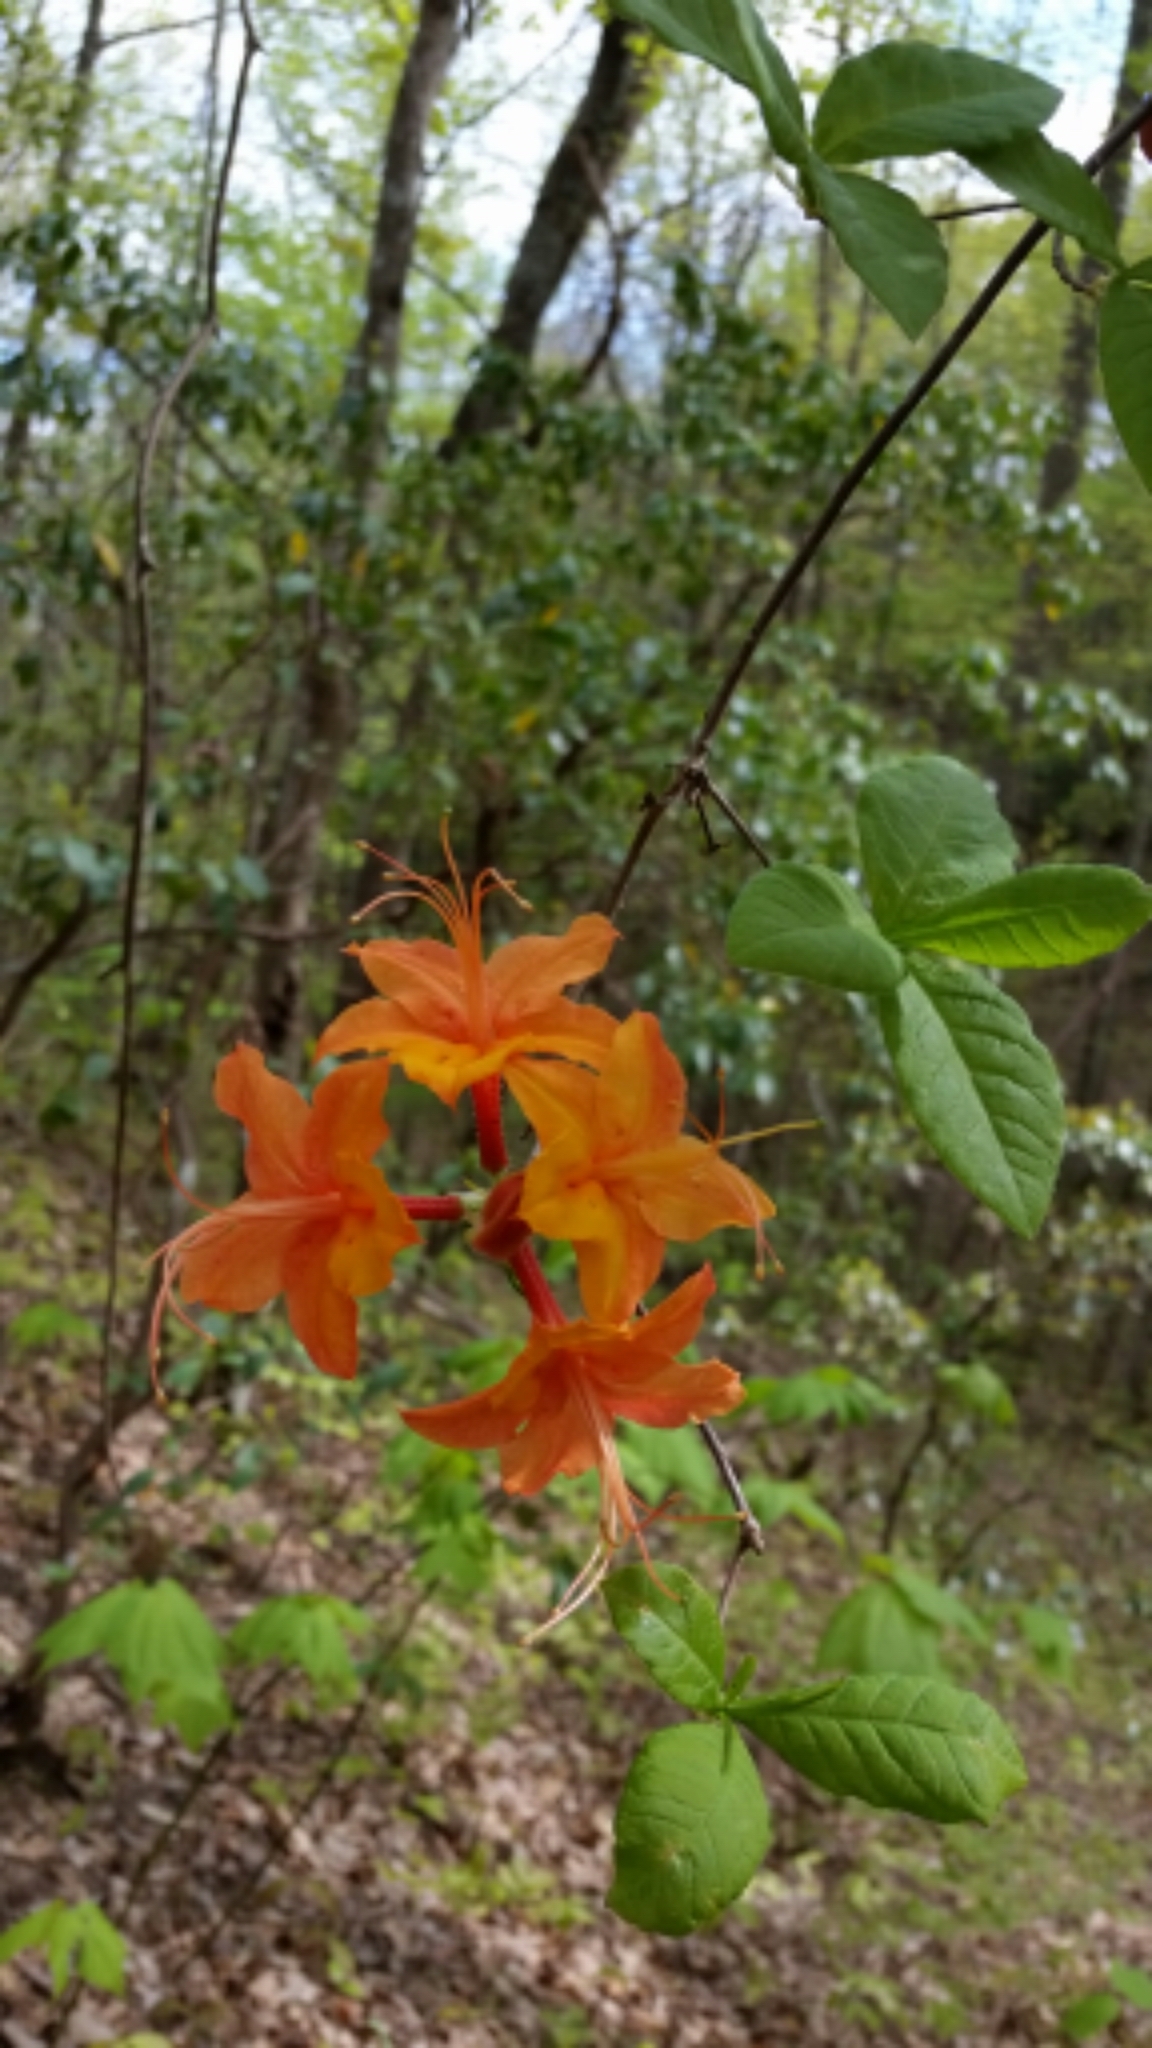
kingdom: Plantae
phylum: Tracheophyta
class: Magnoliopsida
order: Ericales
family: Ericaceae
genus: Rhododendron
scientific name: Rhododendron calendulaceum
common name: Flame azalea
